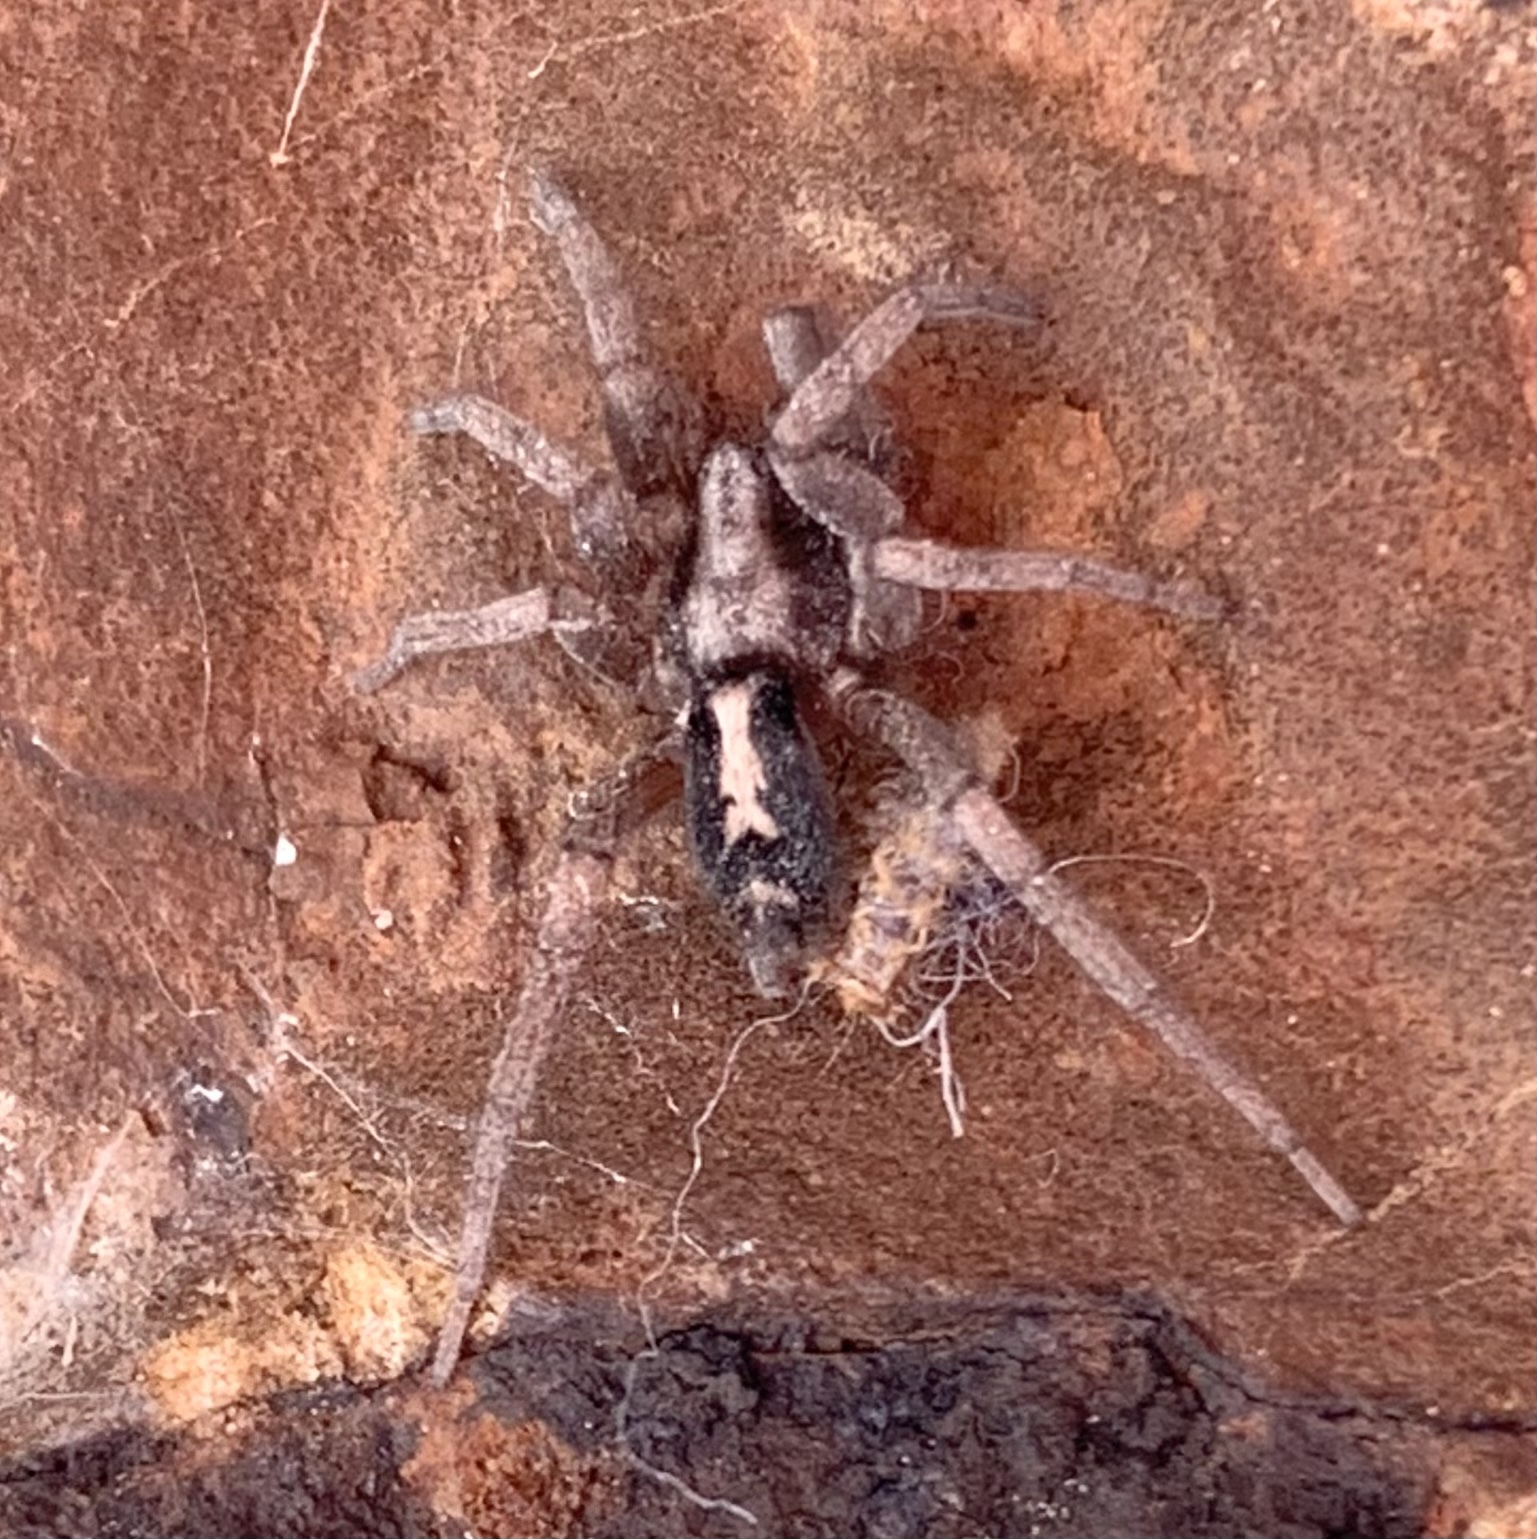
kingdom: Animalia
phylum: Arthropoda
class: Arachnida
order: Araneae
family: Gnaphosidae
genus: Herpyllus
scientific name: Herpyllus ecclesiasticus
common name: Eastern parson spider
